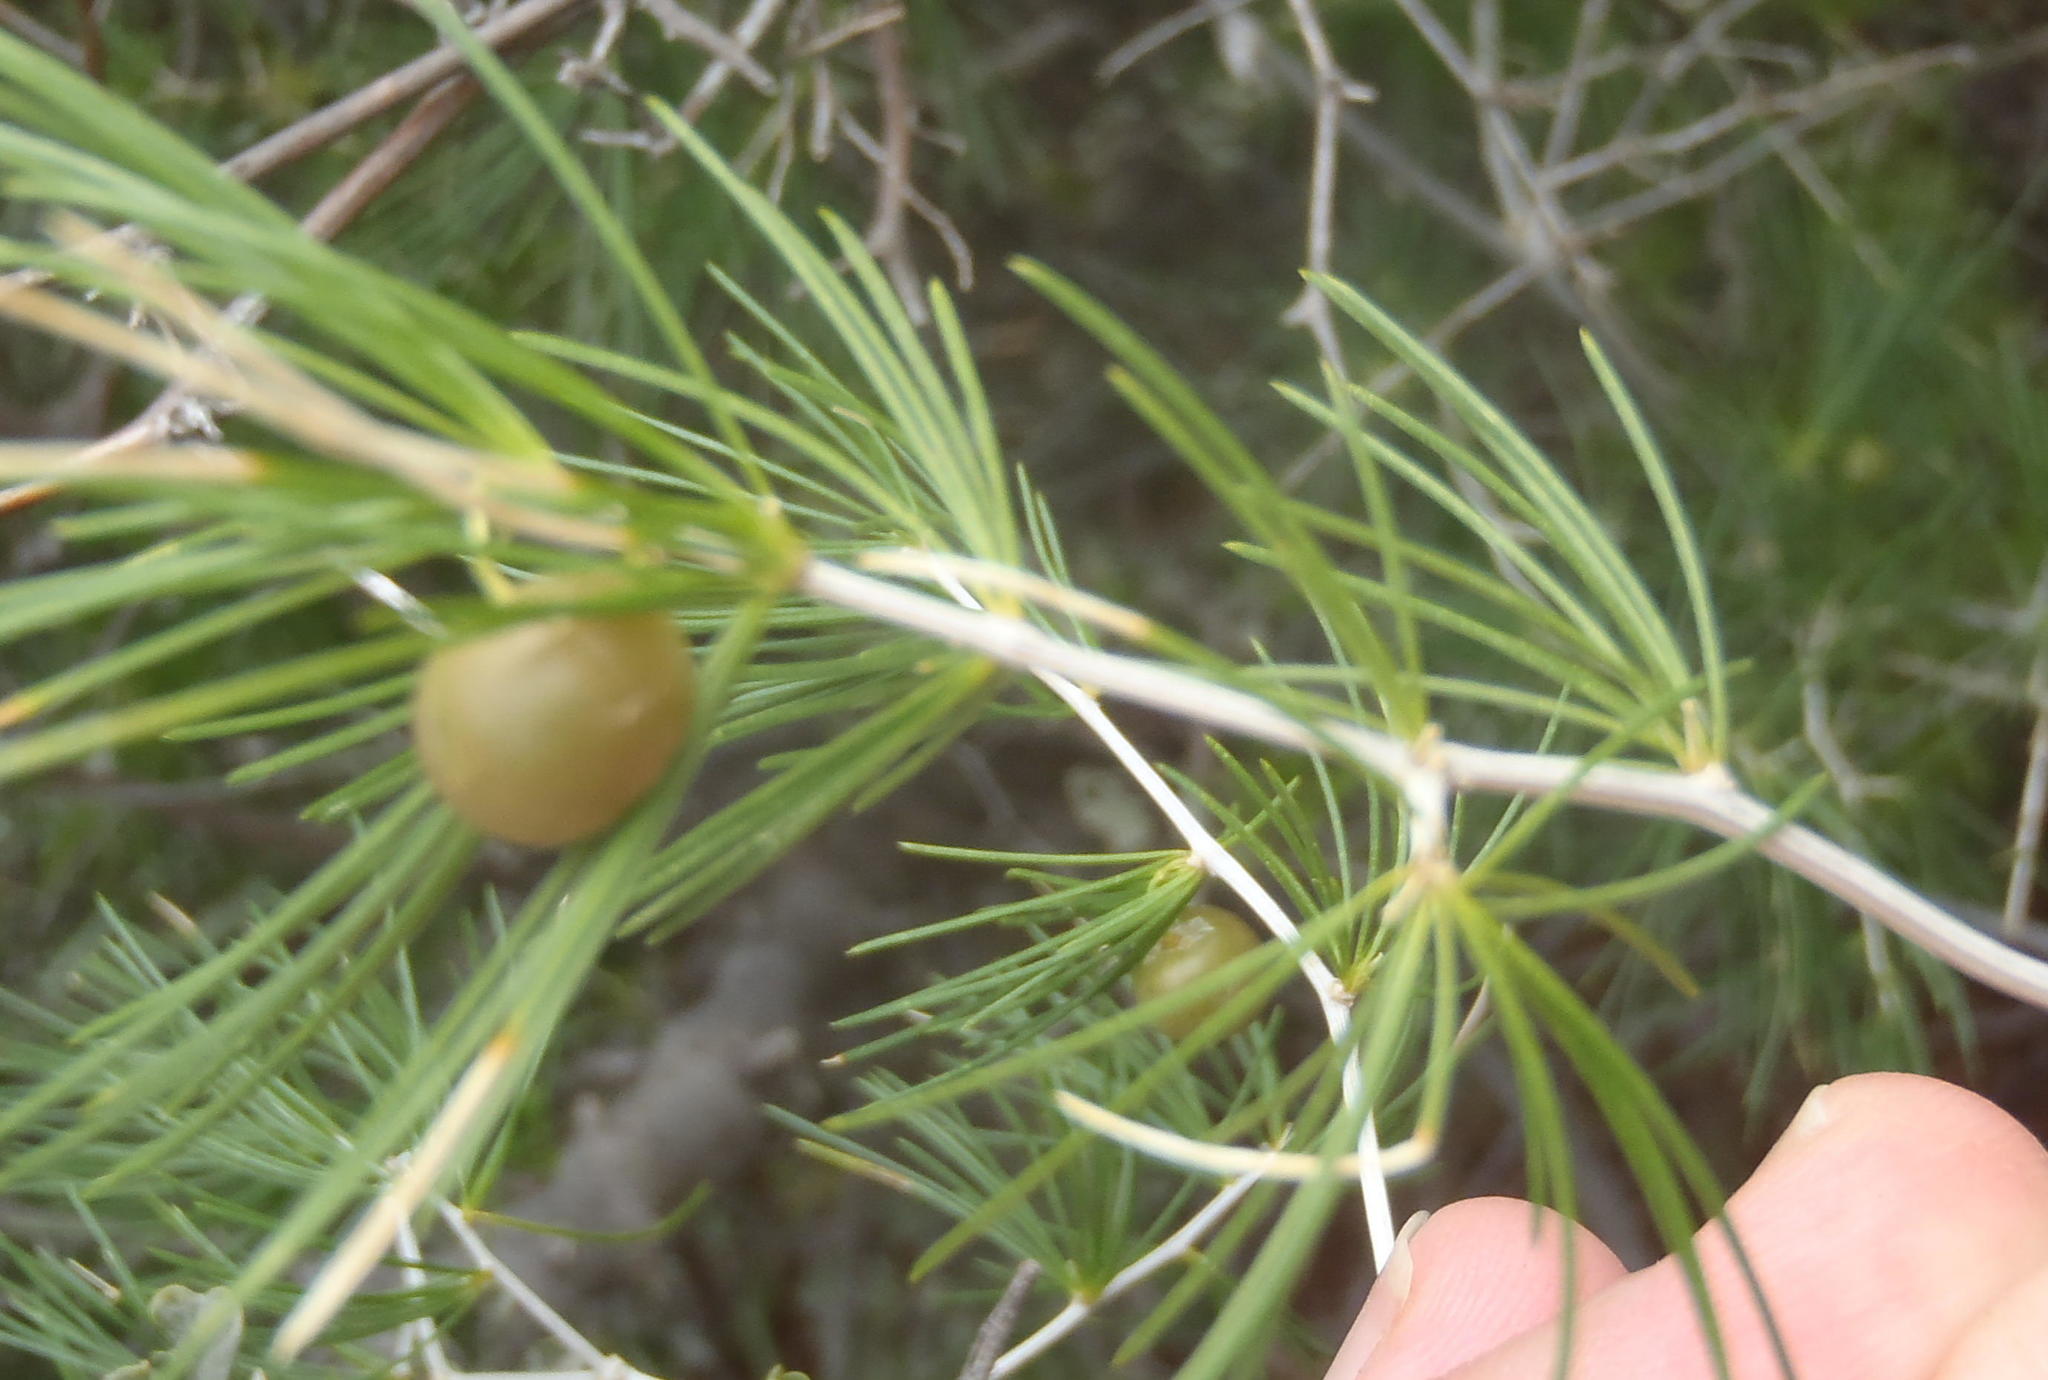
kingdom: Plantae
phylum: Tracheophyta
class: Liliopsida
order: Asparagales
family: Asparagaceae
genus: Asparagus
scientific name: Asparagus retrofractus
